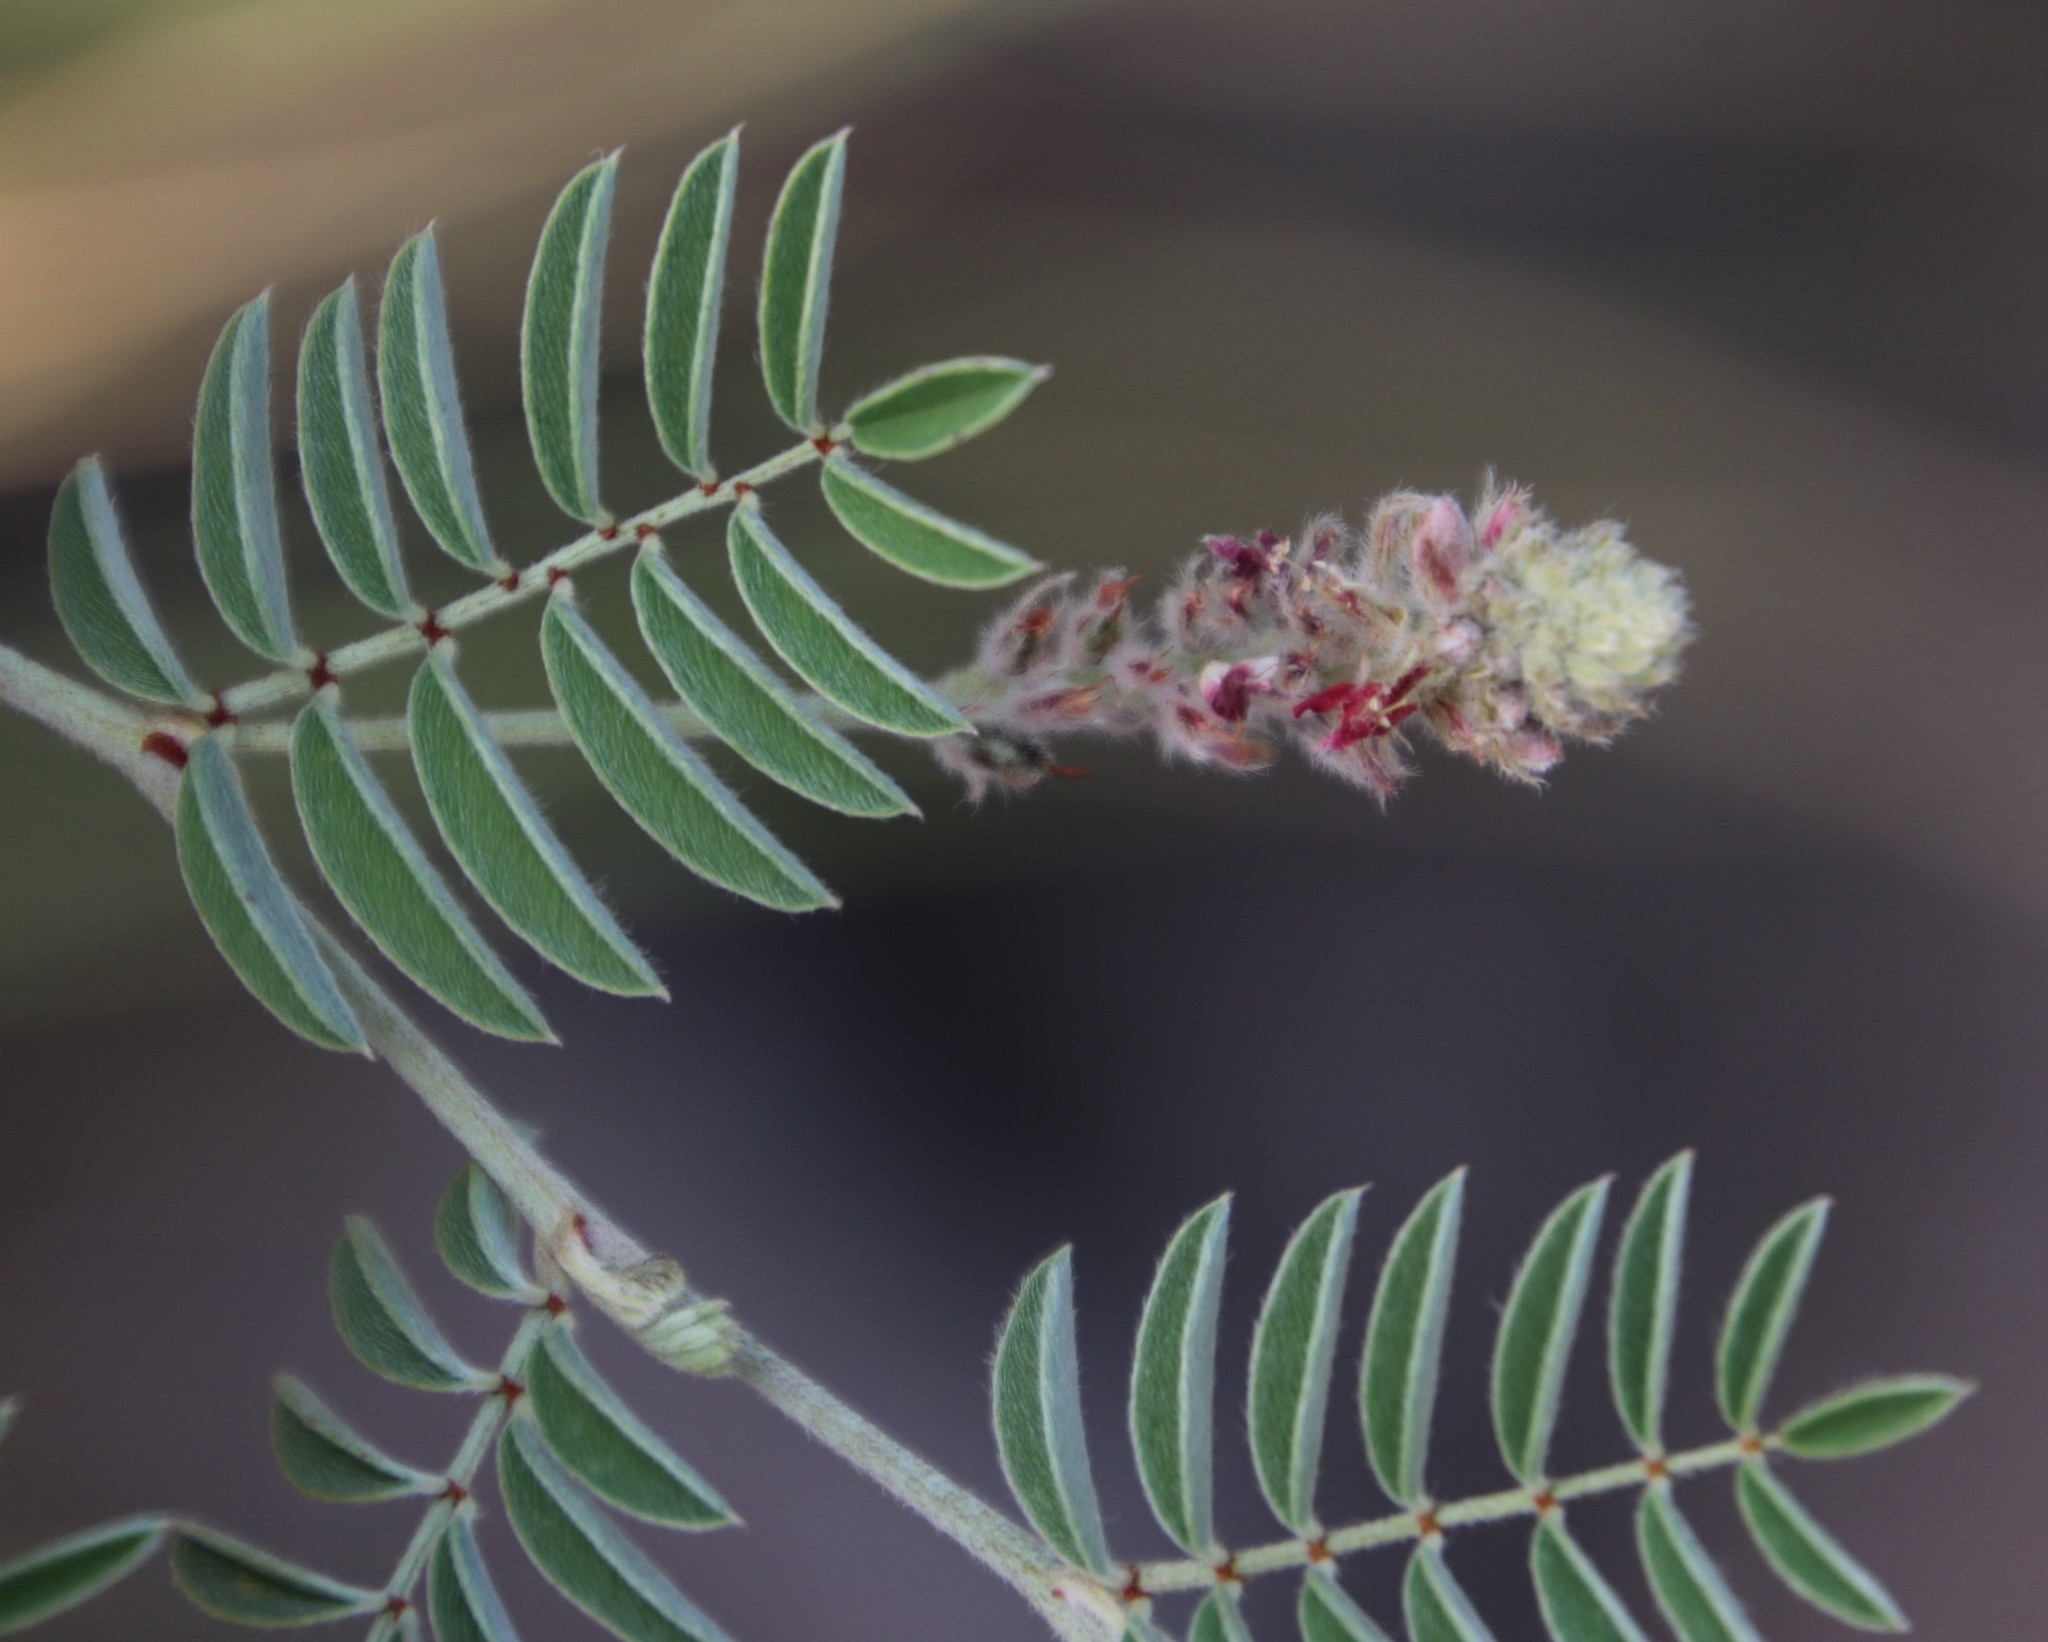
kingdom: Plantae
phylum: Tracheophyta
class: Magnoliopsida
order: Fabales
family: Fabaceae
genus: Indigofera
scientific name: Indigofera melanadenia
